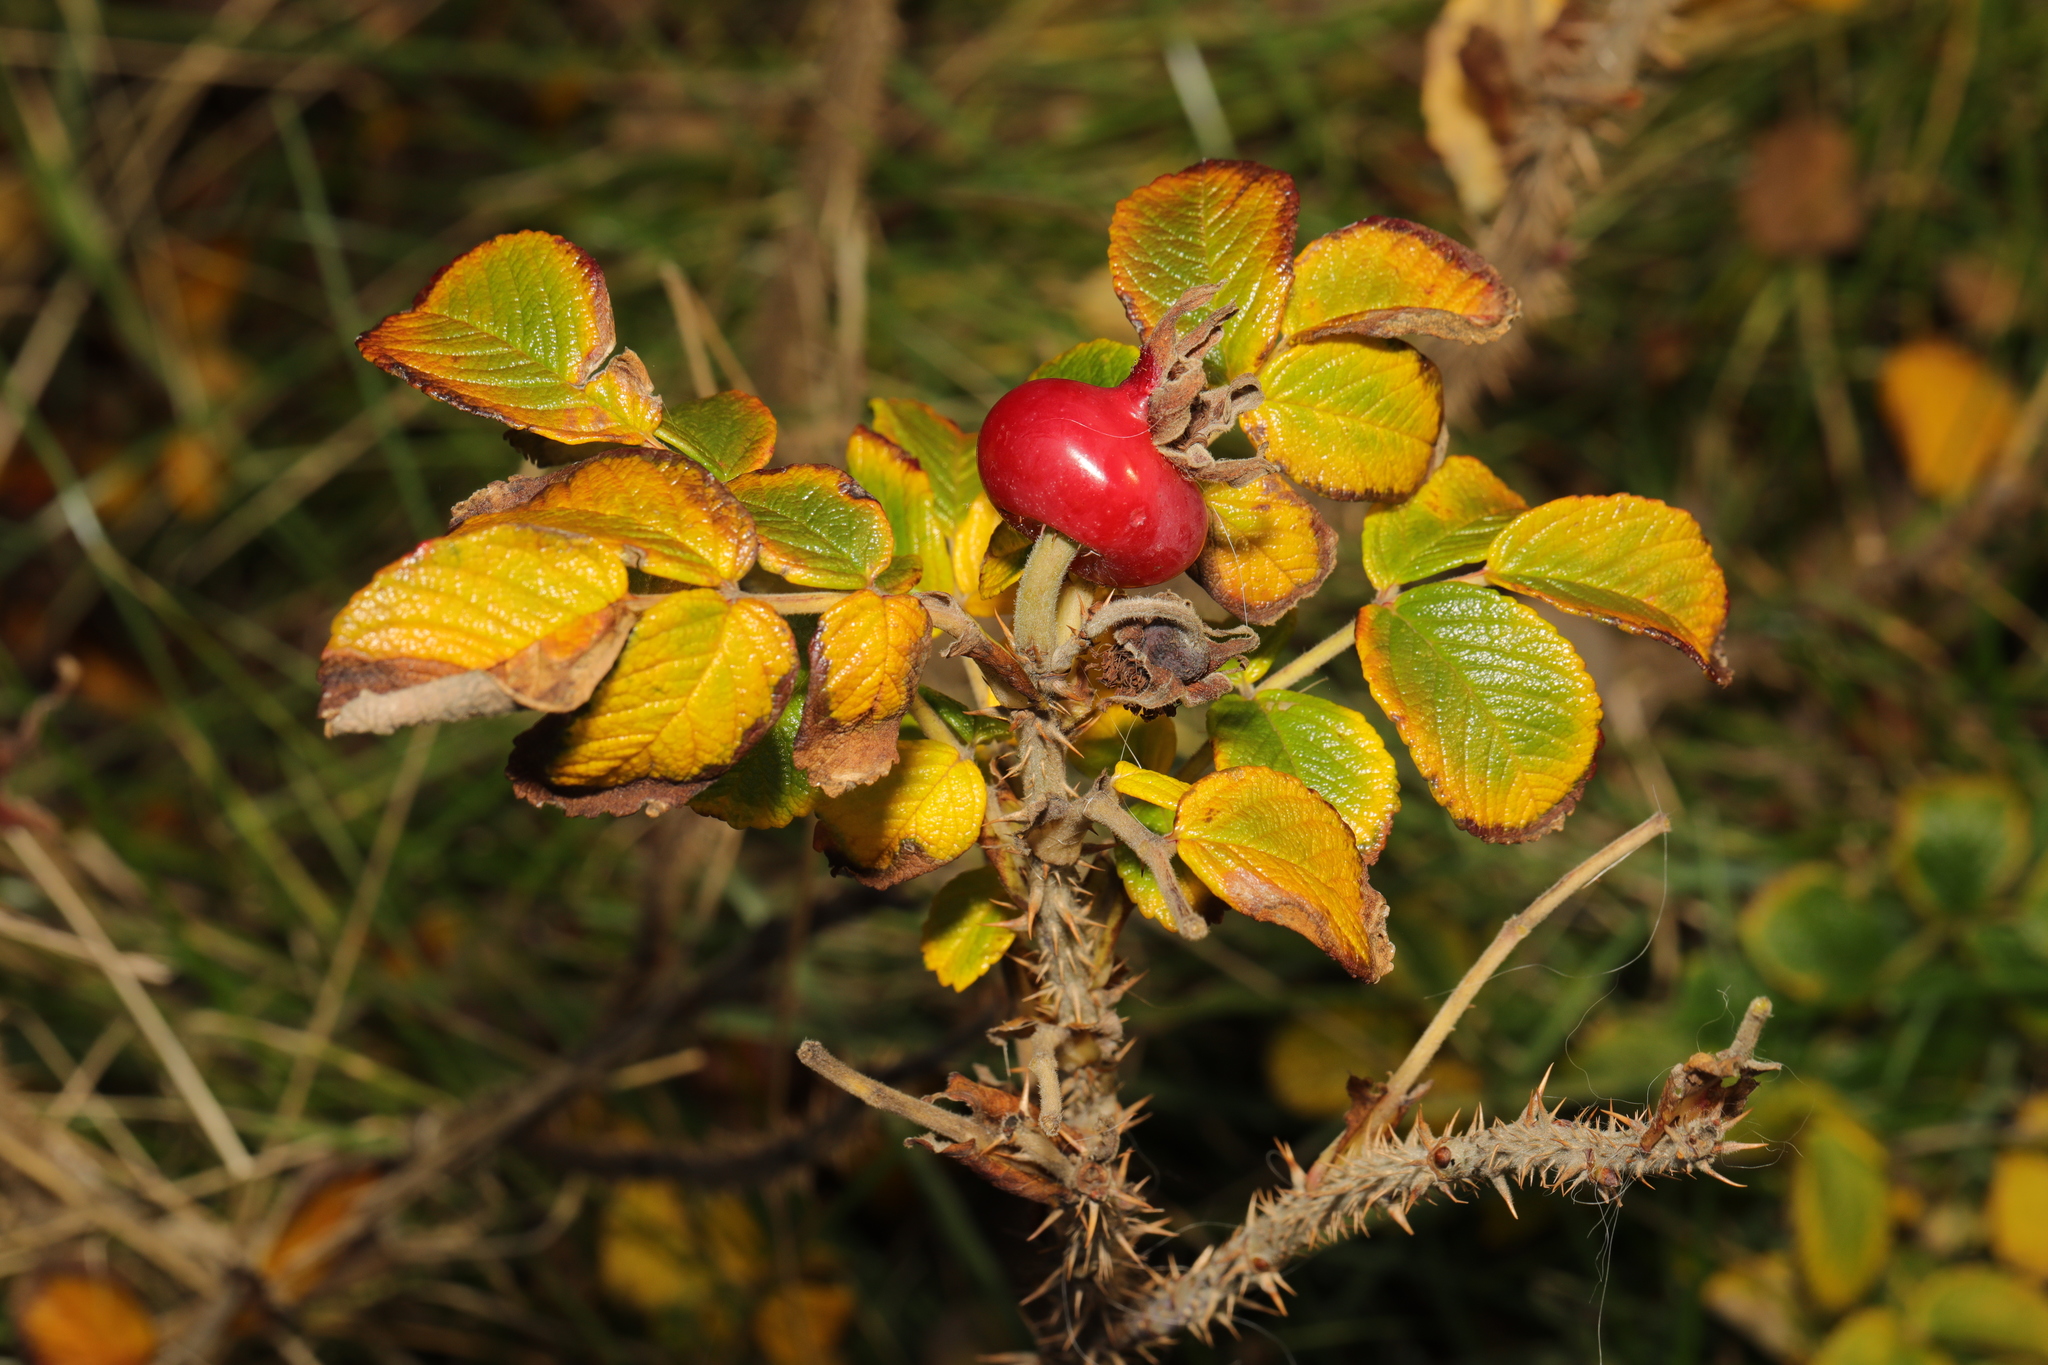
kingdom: Plantae
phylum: Tracheophyta
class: Magnoliopsida
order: Rosales
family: Rosaceae
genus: Rosa
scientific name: Rosa rugosa
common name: Japanese rose
